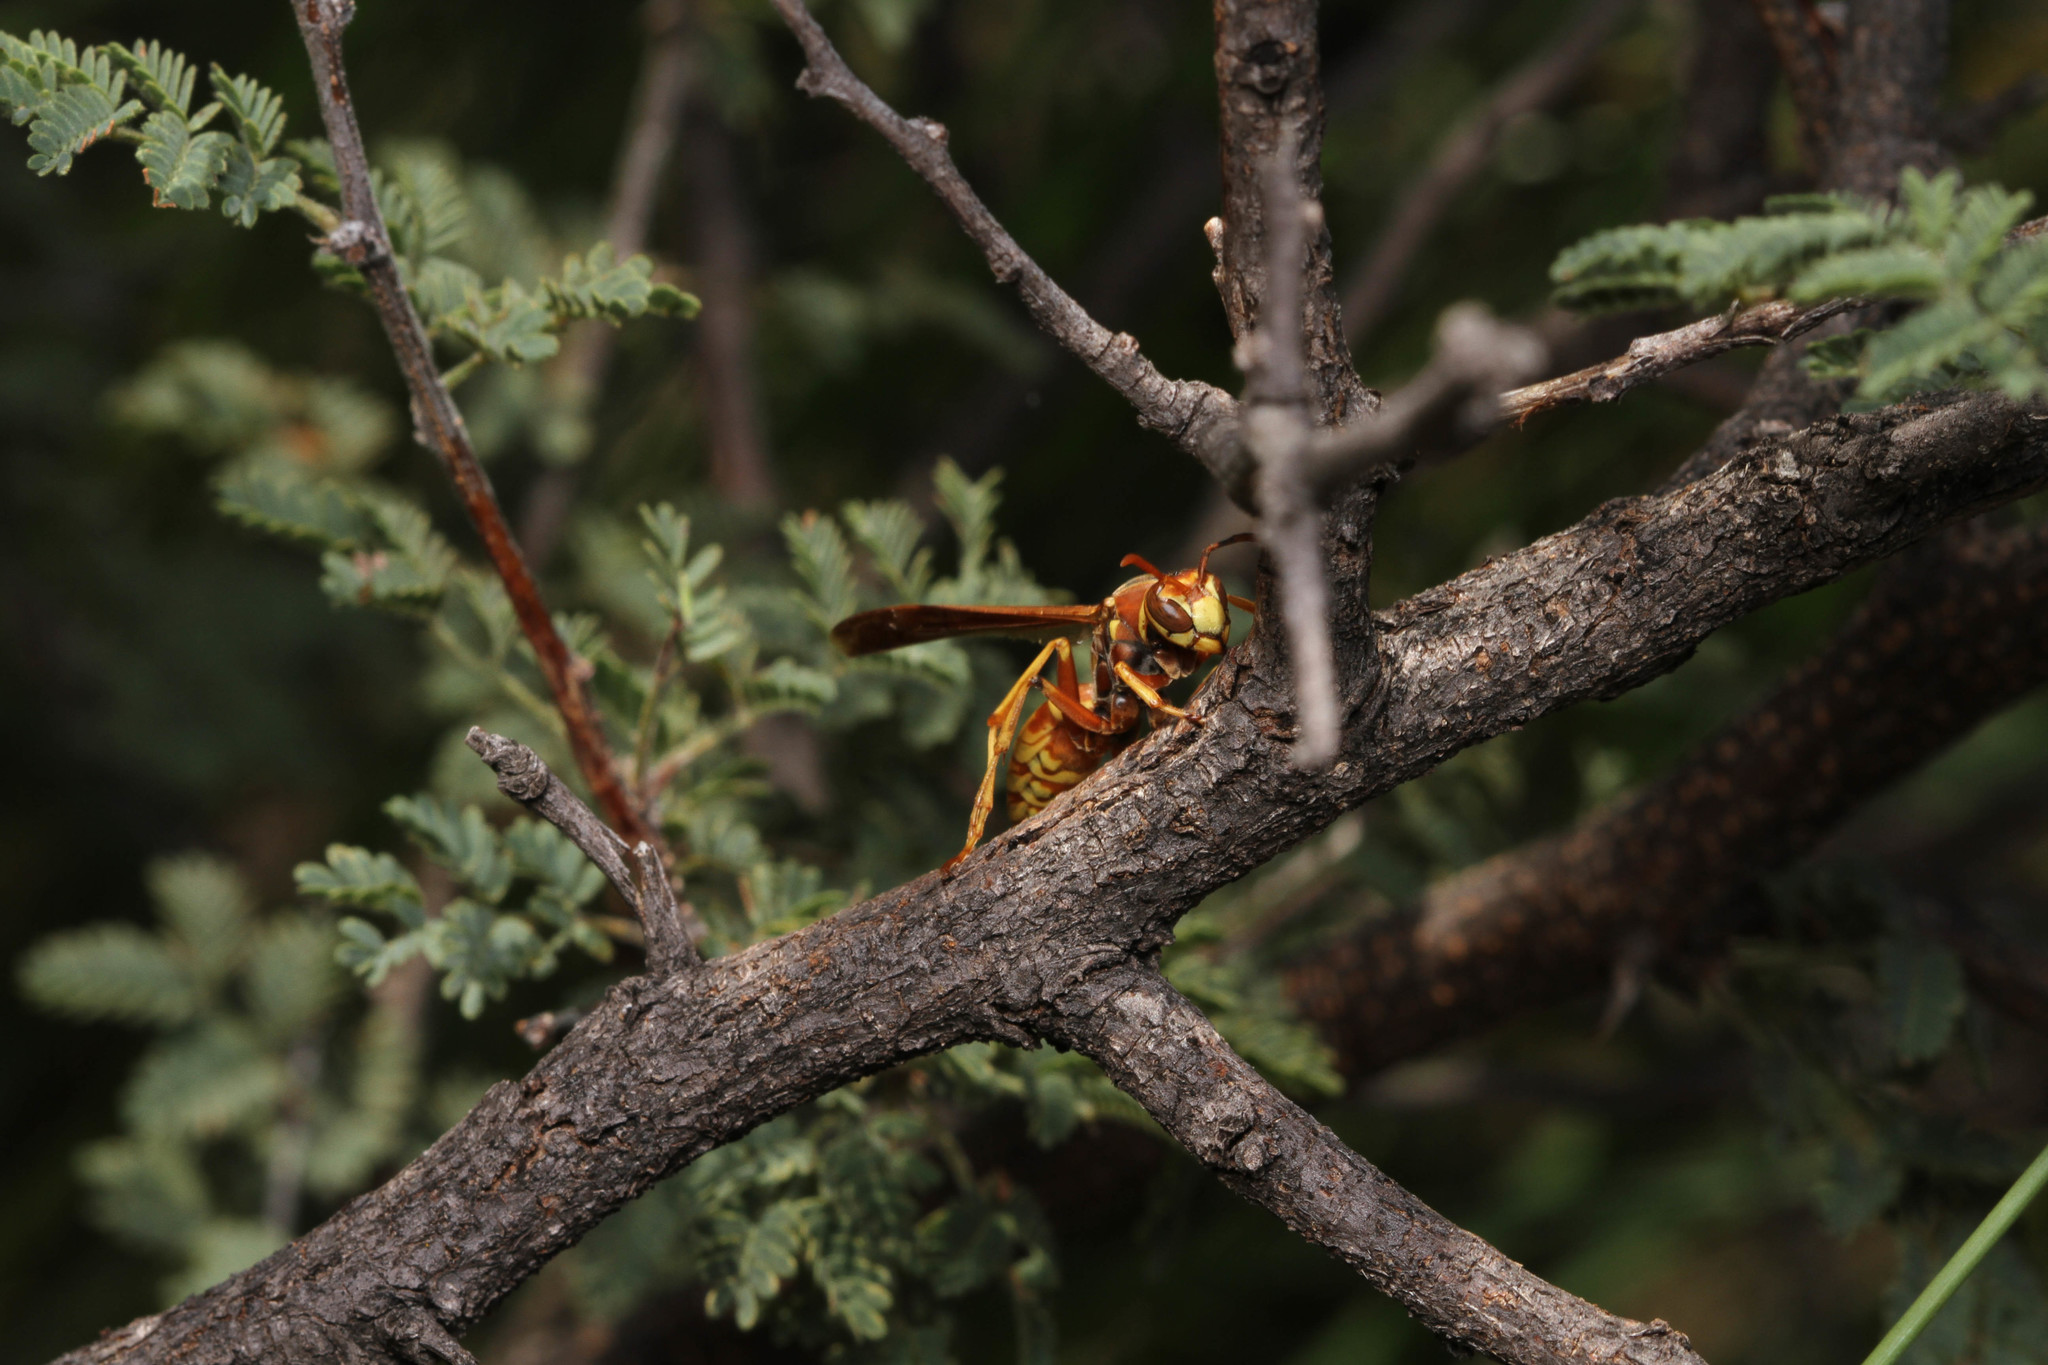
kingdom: Animalia
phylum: Arthropoda
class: Insecta
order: Hymenoptera
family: Eumenidae
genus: Polistes
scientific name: Polistes aurifer
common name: Paper wasp
